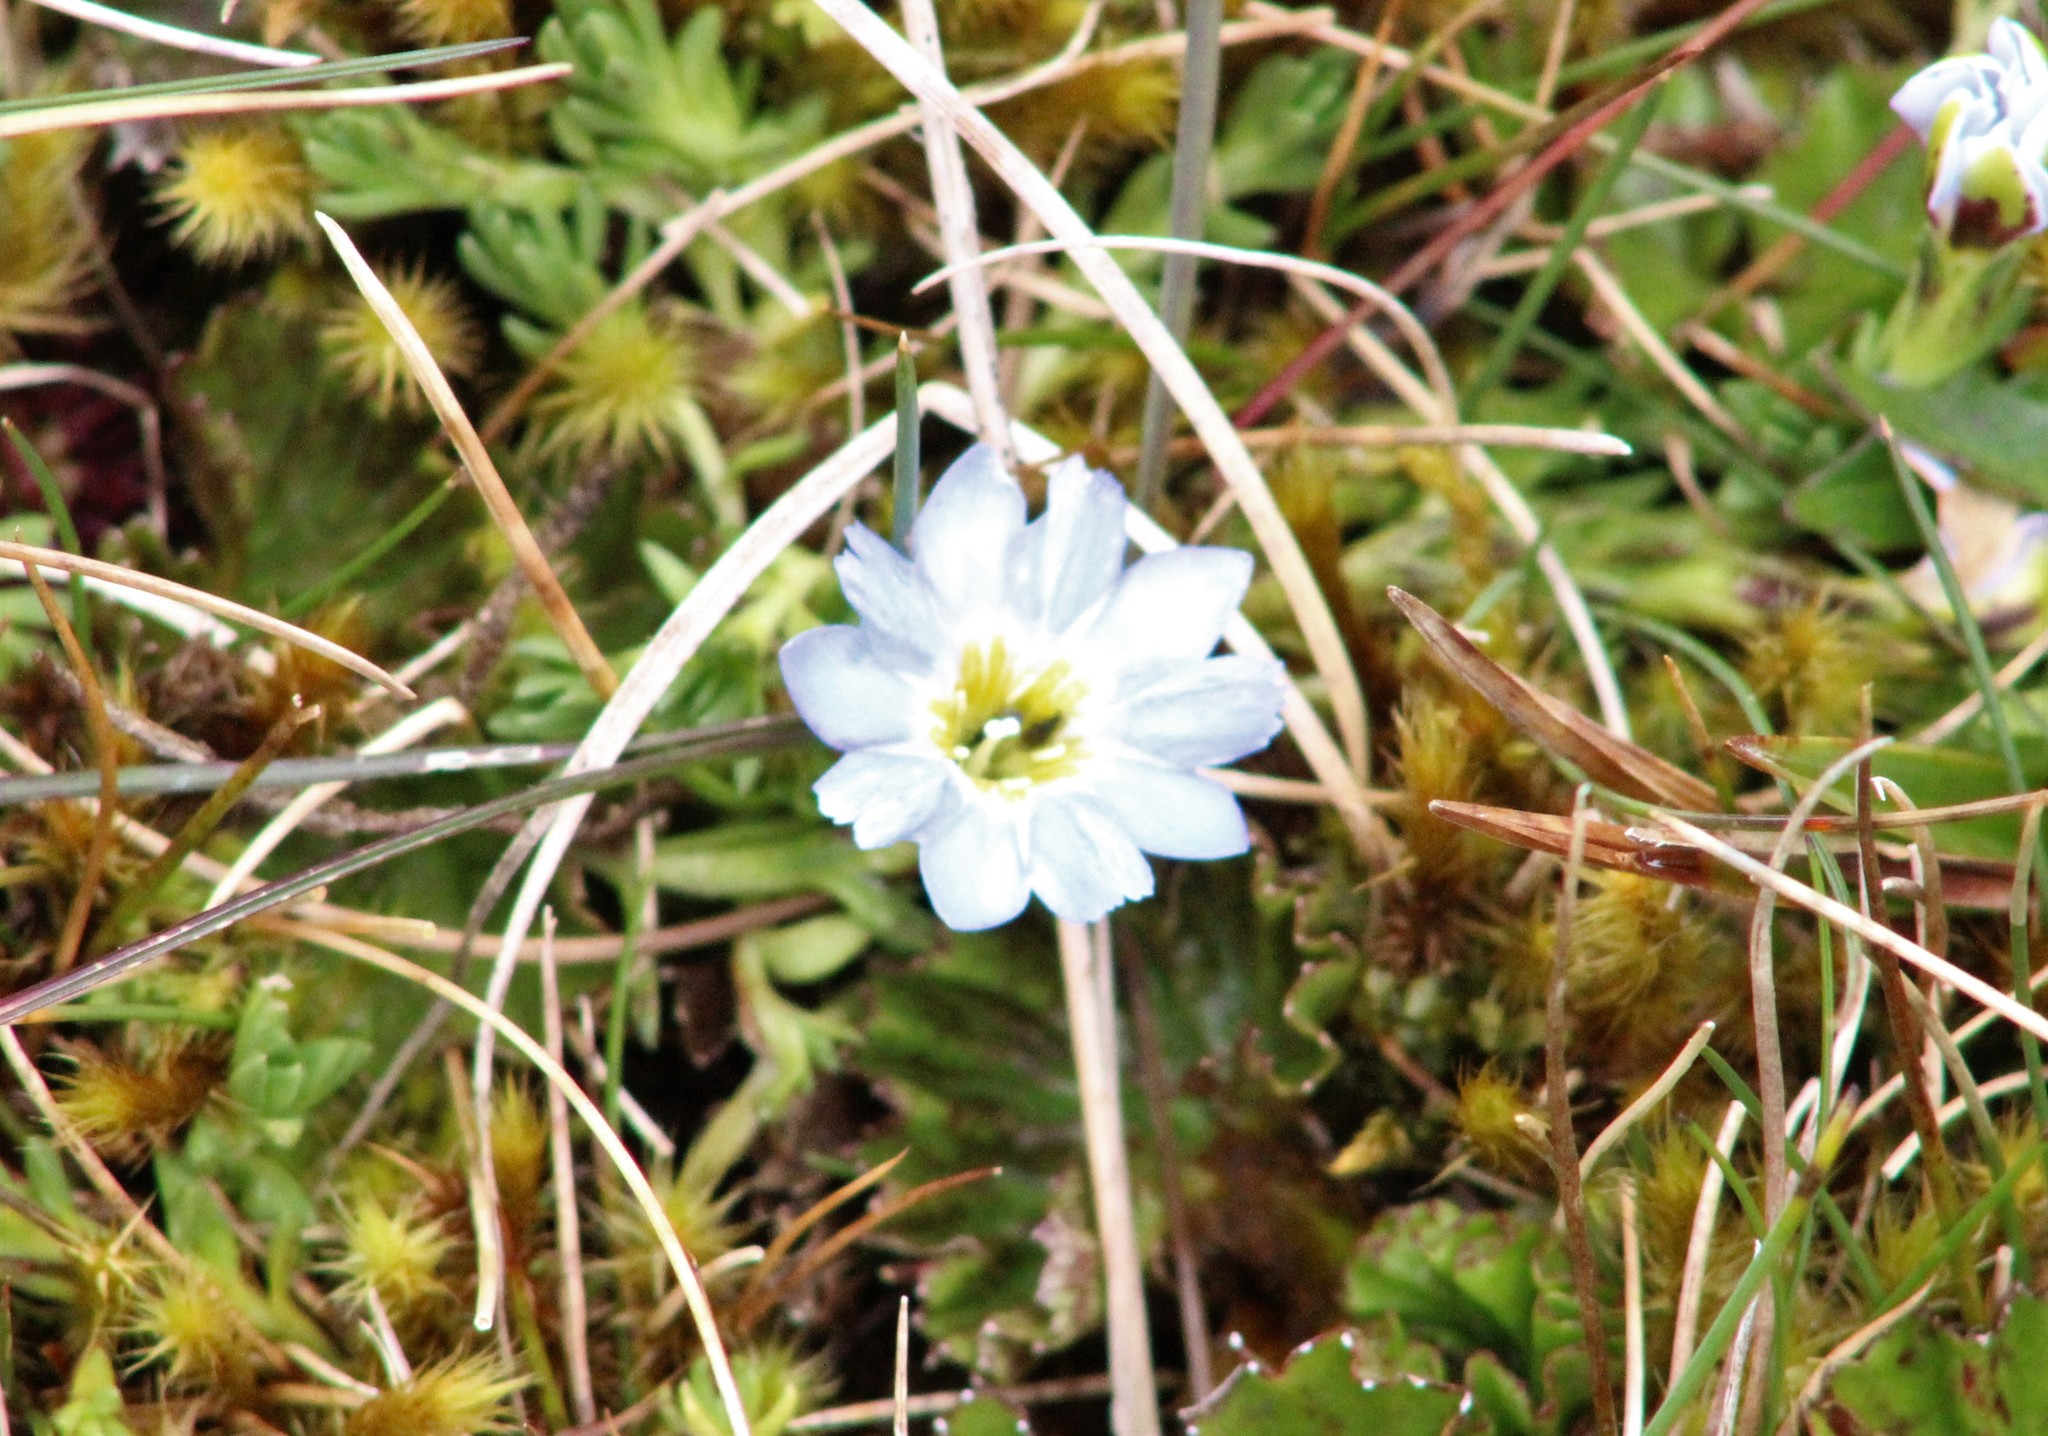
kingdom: Plantae
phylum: Tracheophyta
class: Magnoliopsida
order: Gentianales
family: Gentianaceae
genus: Gentiana
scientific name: Gentiana sedifolia
